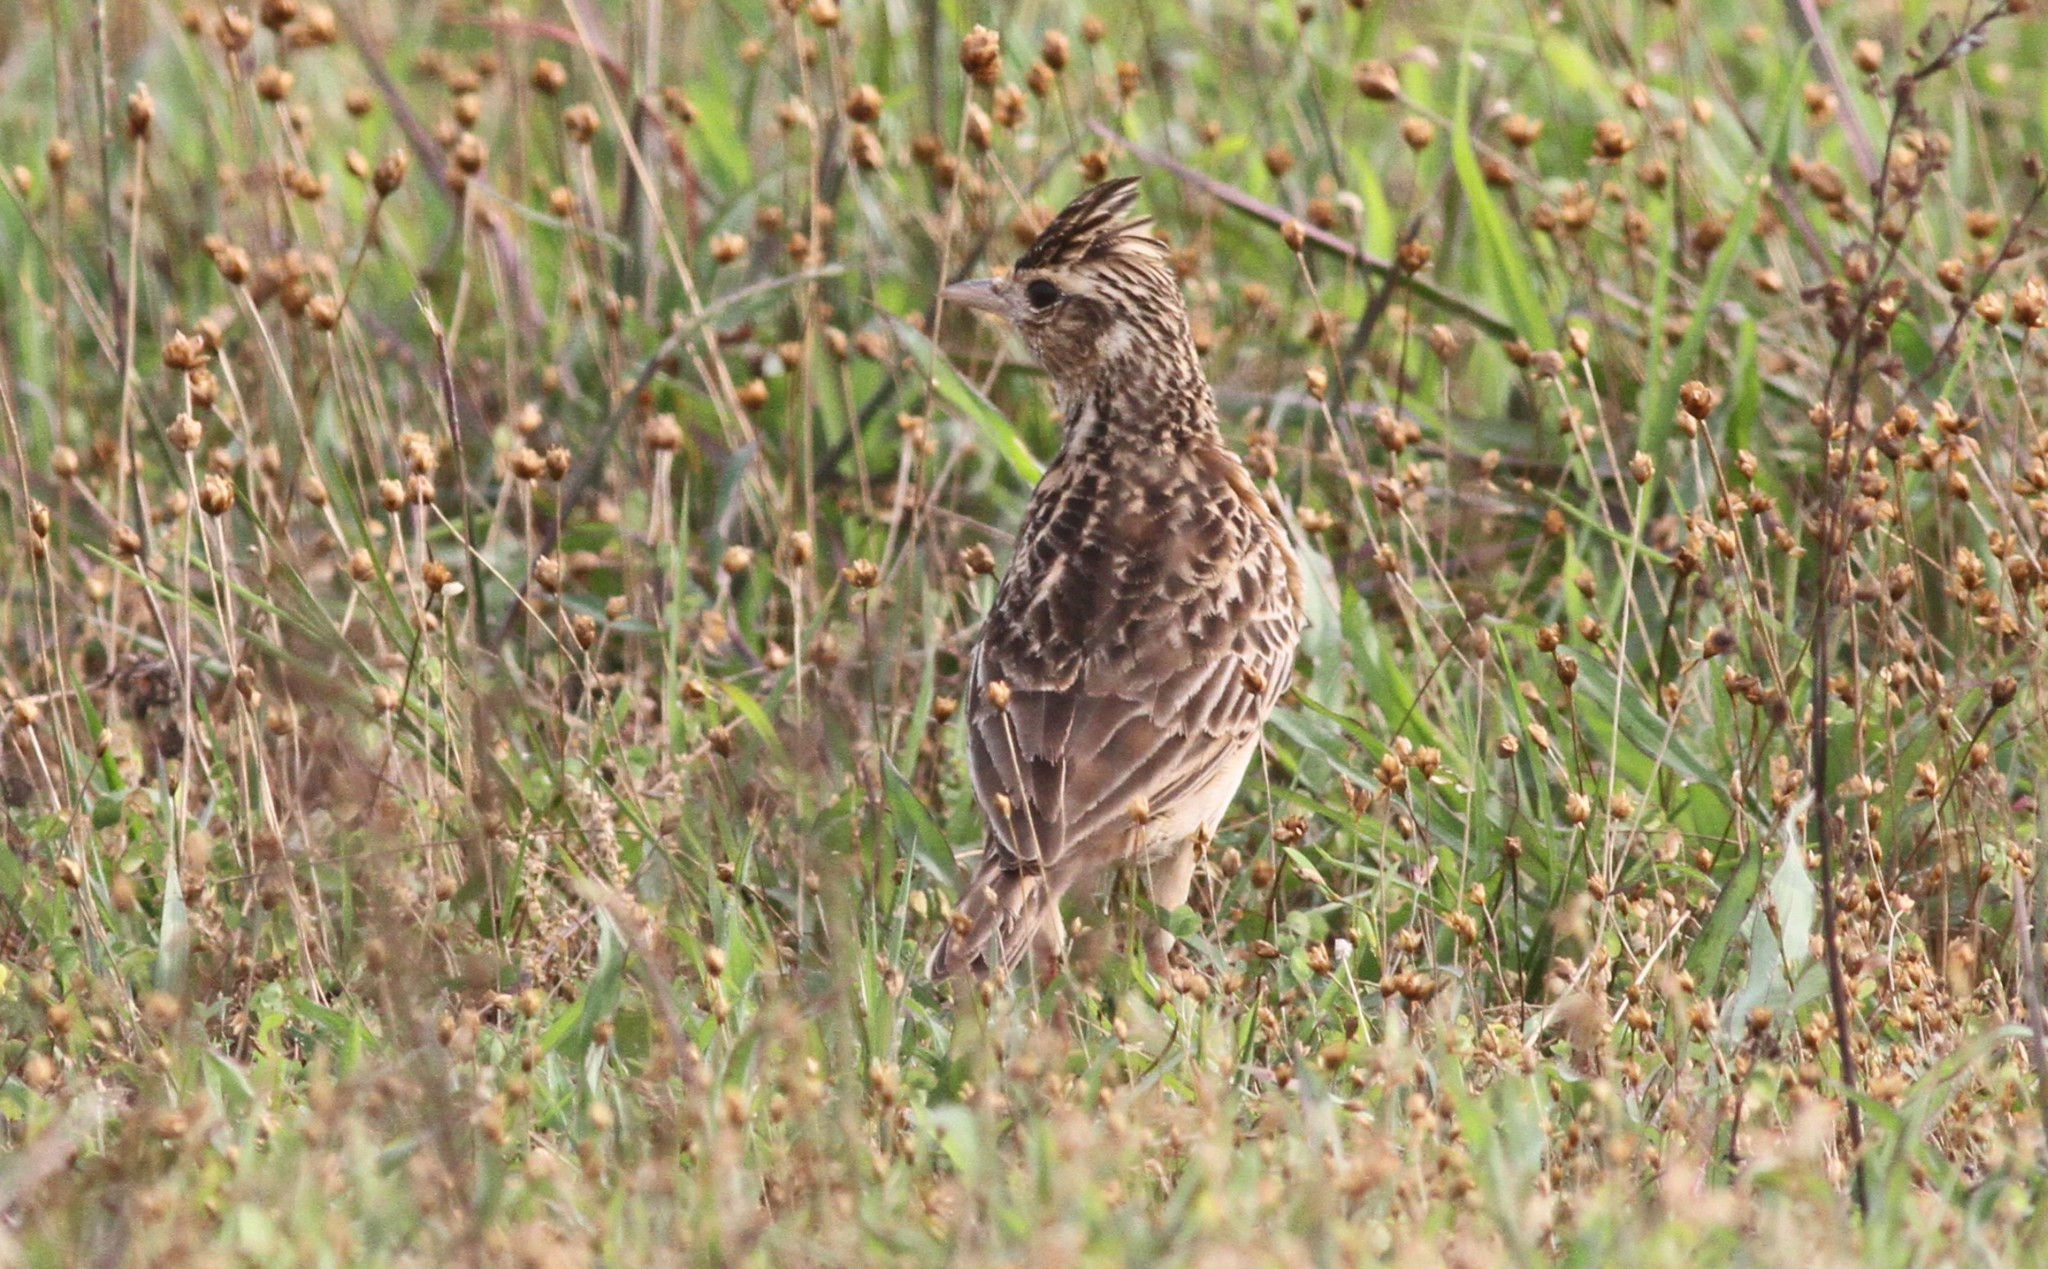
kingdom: Animalia
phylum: Chordata
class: Aves
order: Passeriformes
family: Alaudidae
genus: Alauda
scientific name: Alauda gulgula
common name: Oriental skylark
